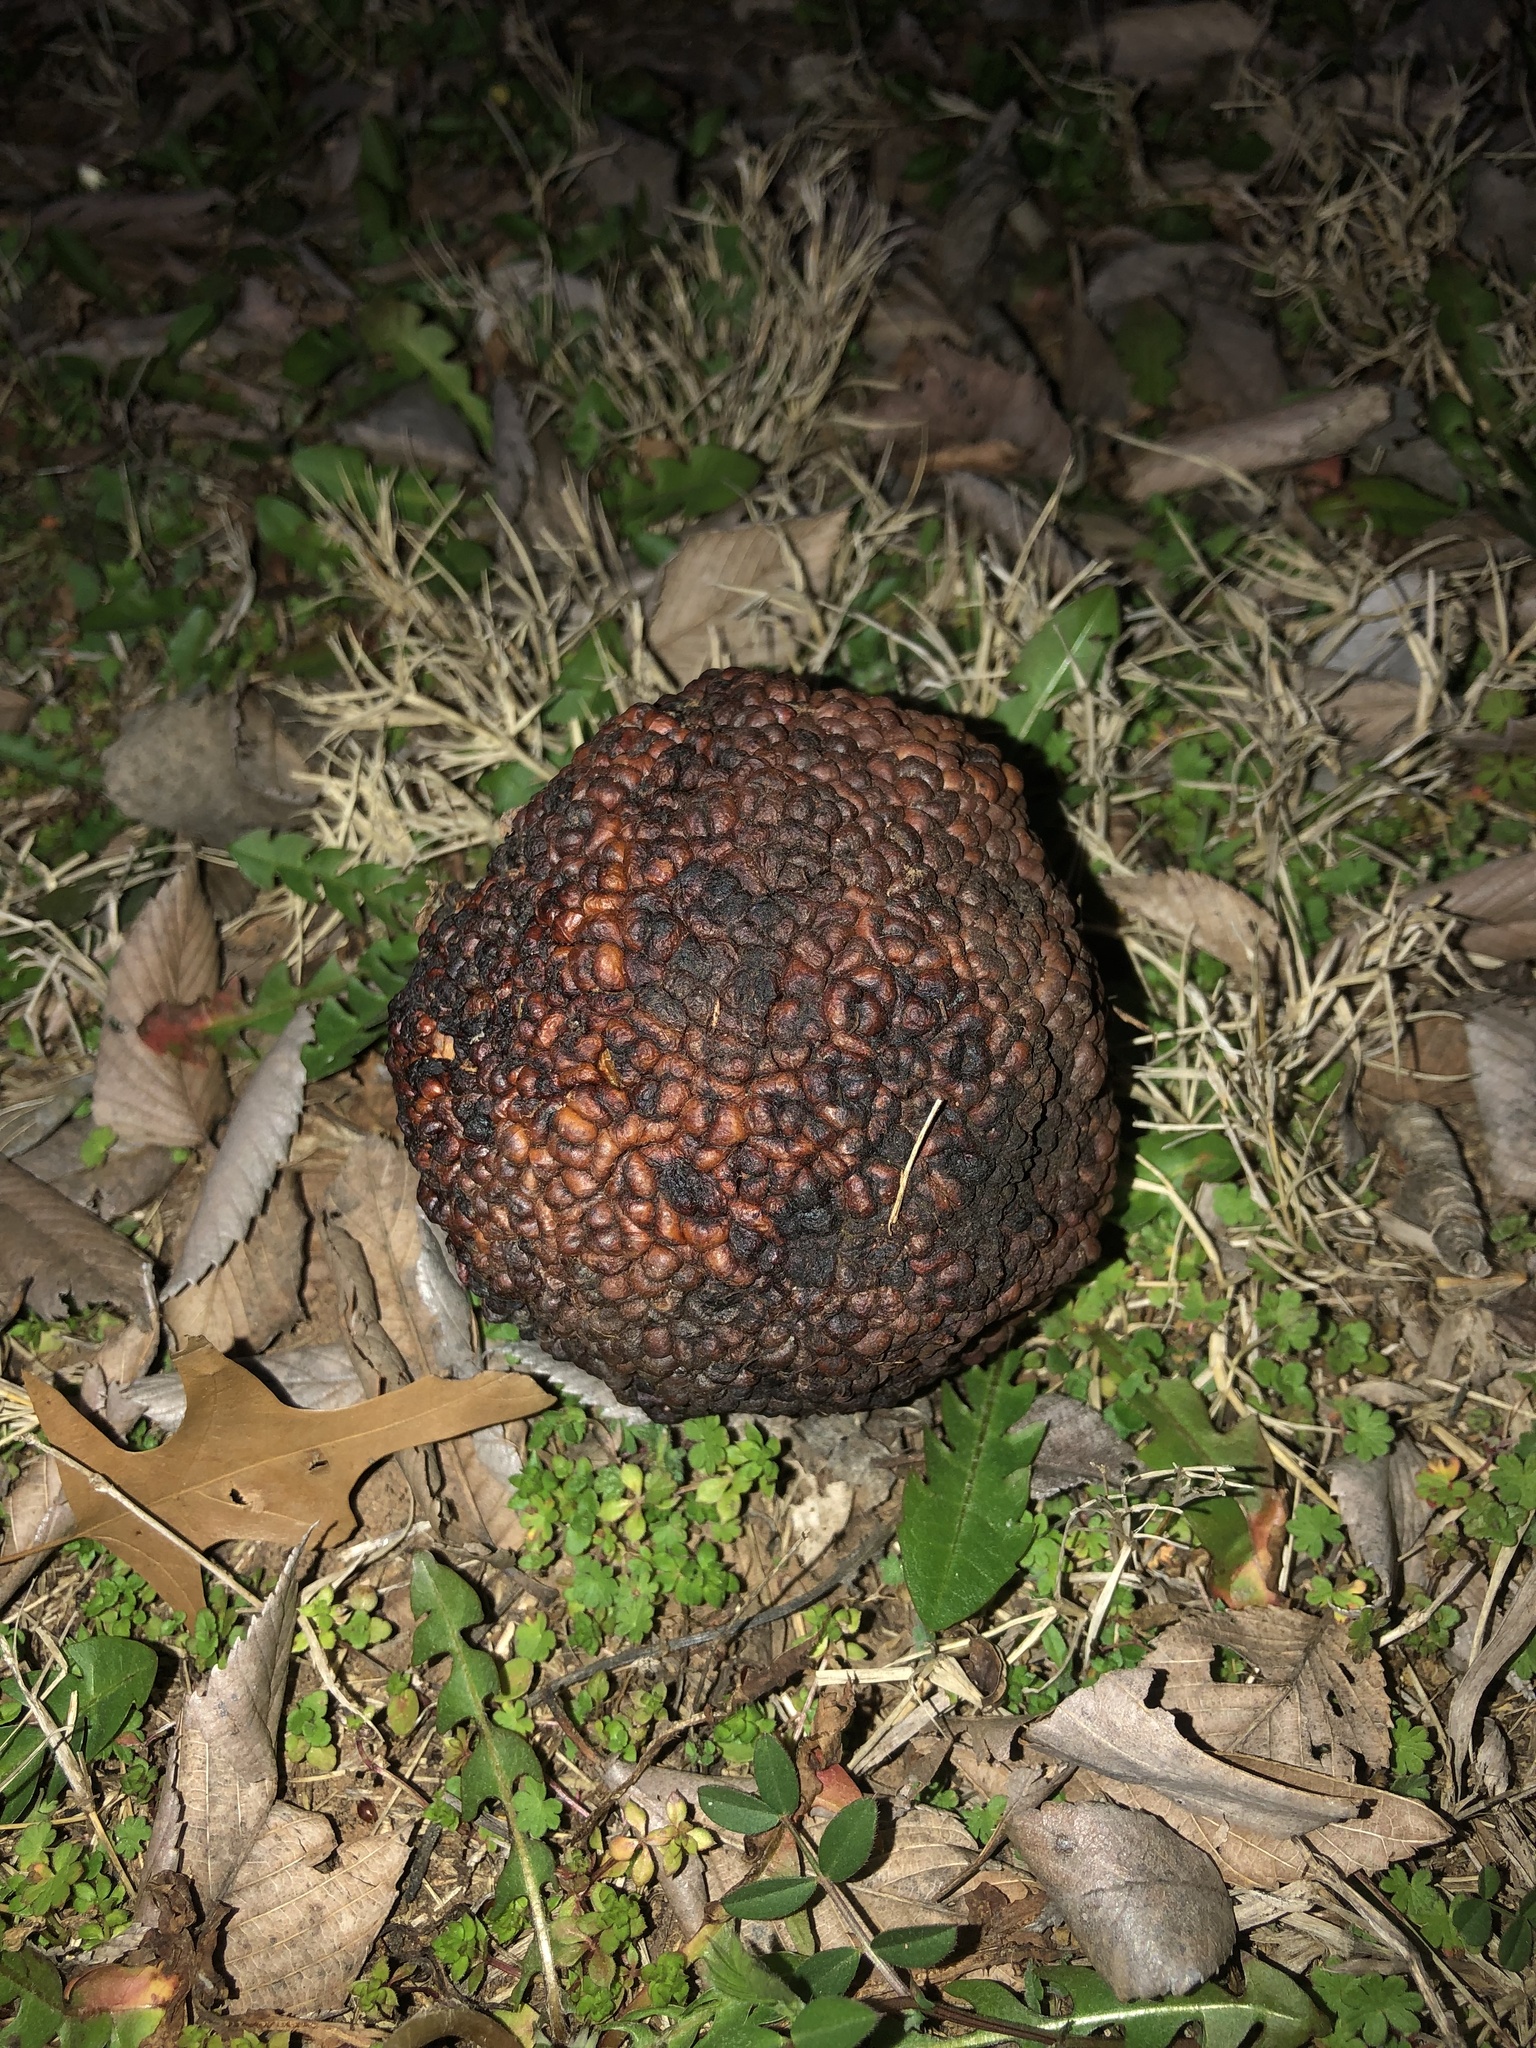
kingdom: Plantae
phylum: Tracheophyta
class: Magnoliopsida
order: Rosales
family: Moraceae
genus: Maclura
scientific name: Maclura pomifera
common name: Osage-orange
